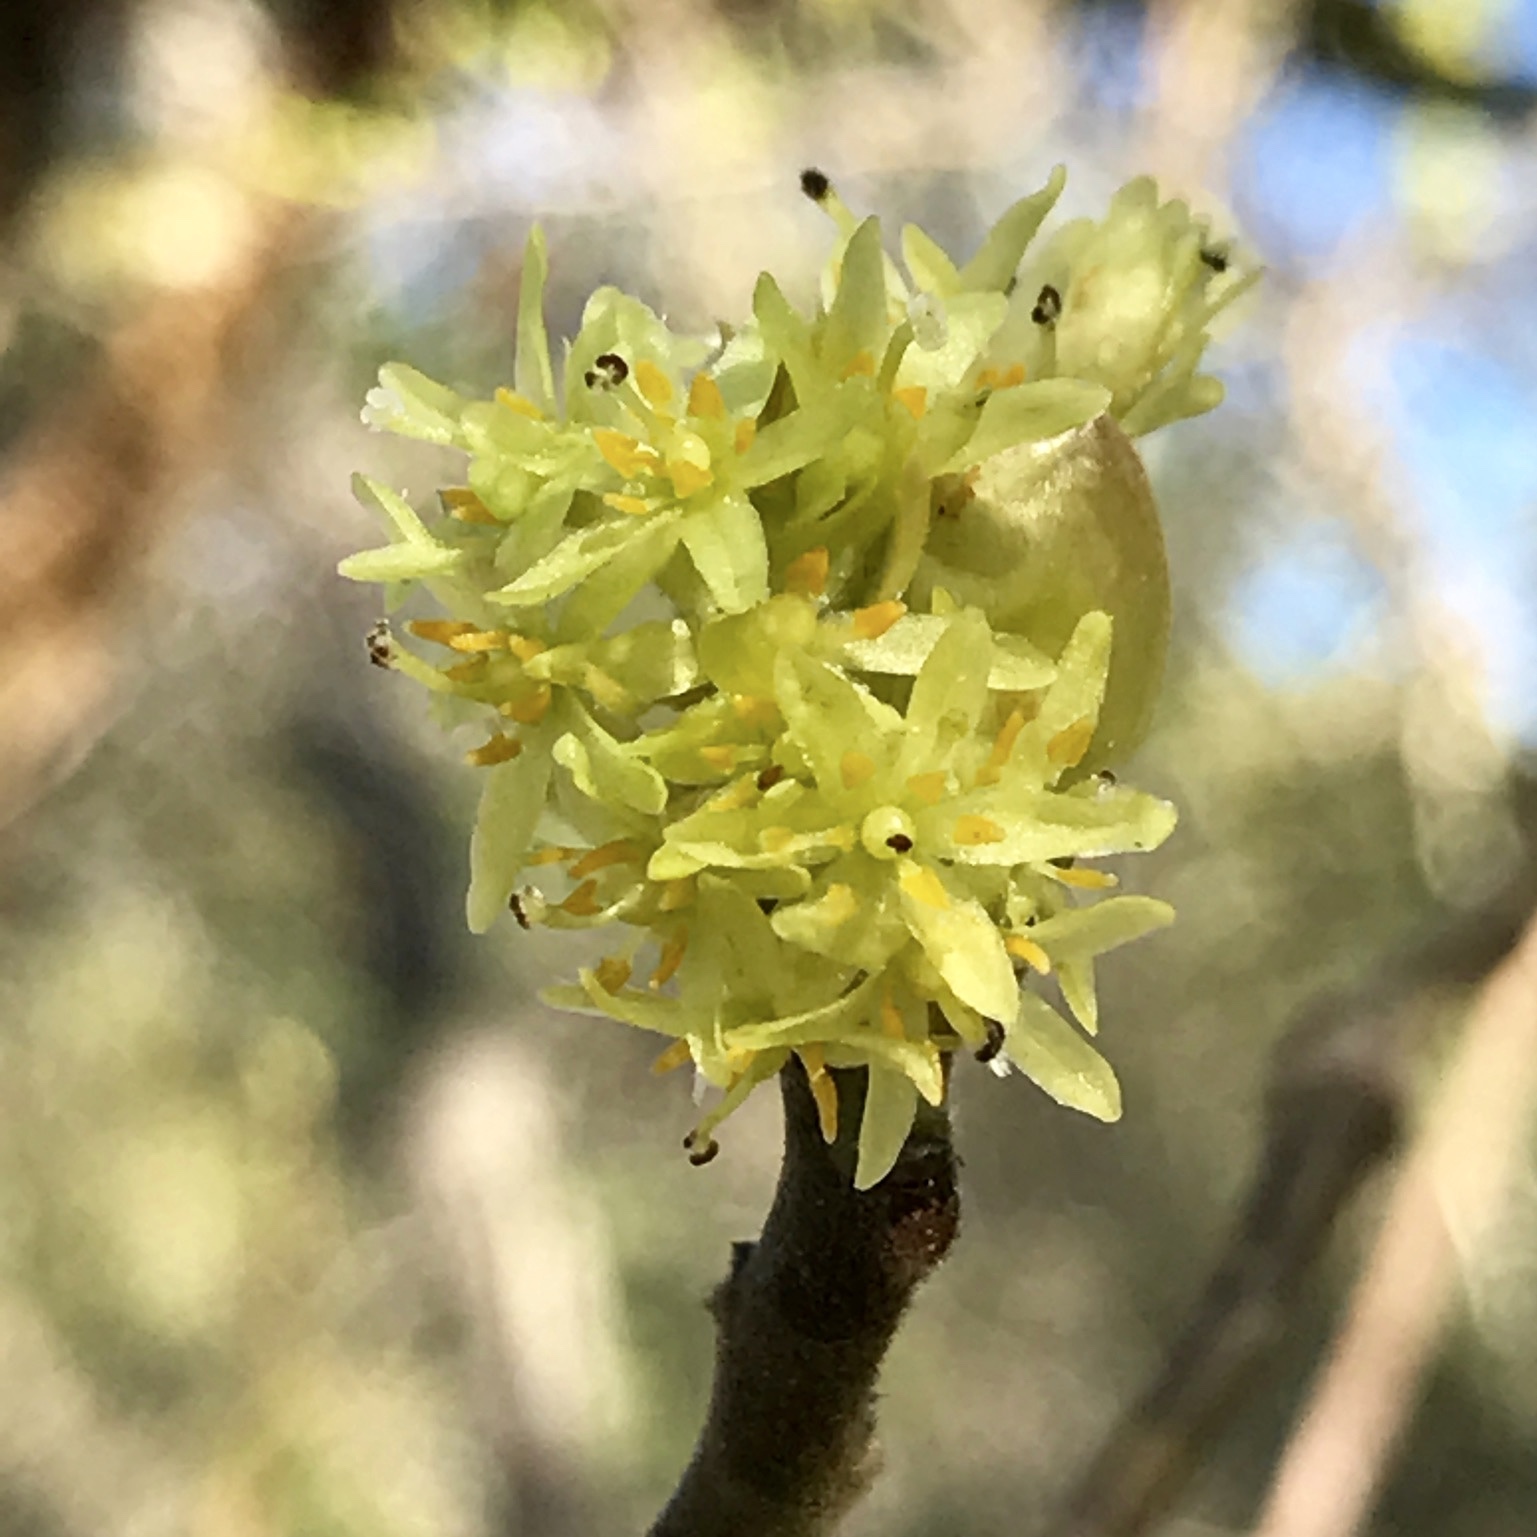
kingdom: Plantae
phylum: Tracheophyta
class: Magnoliopsida
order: Laurales
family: Lauraceae
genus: Sassafras
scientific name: Sassafras albidum
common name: Sassafras
